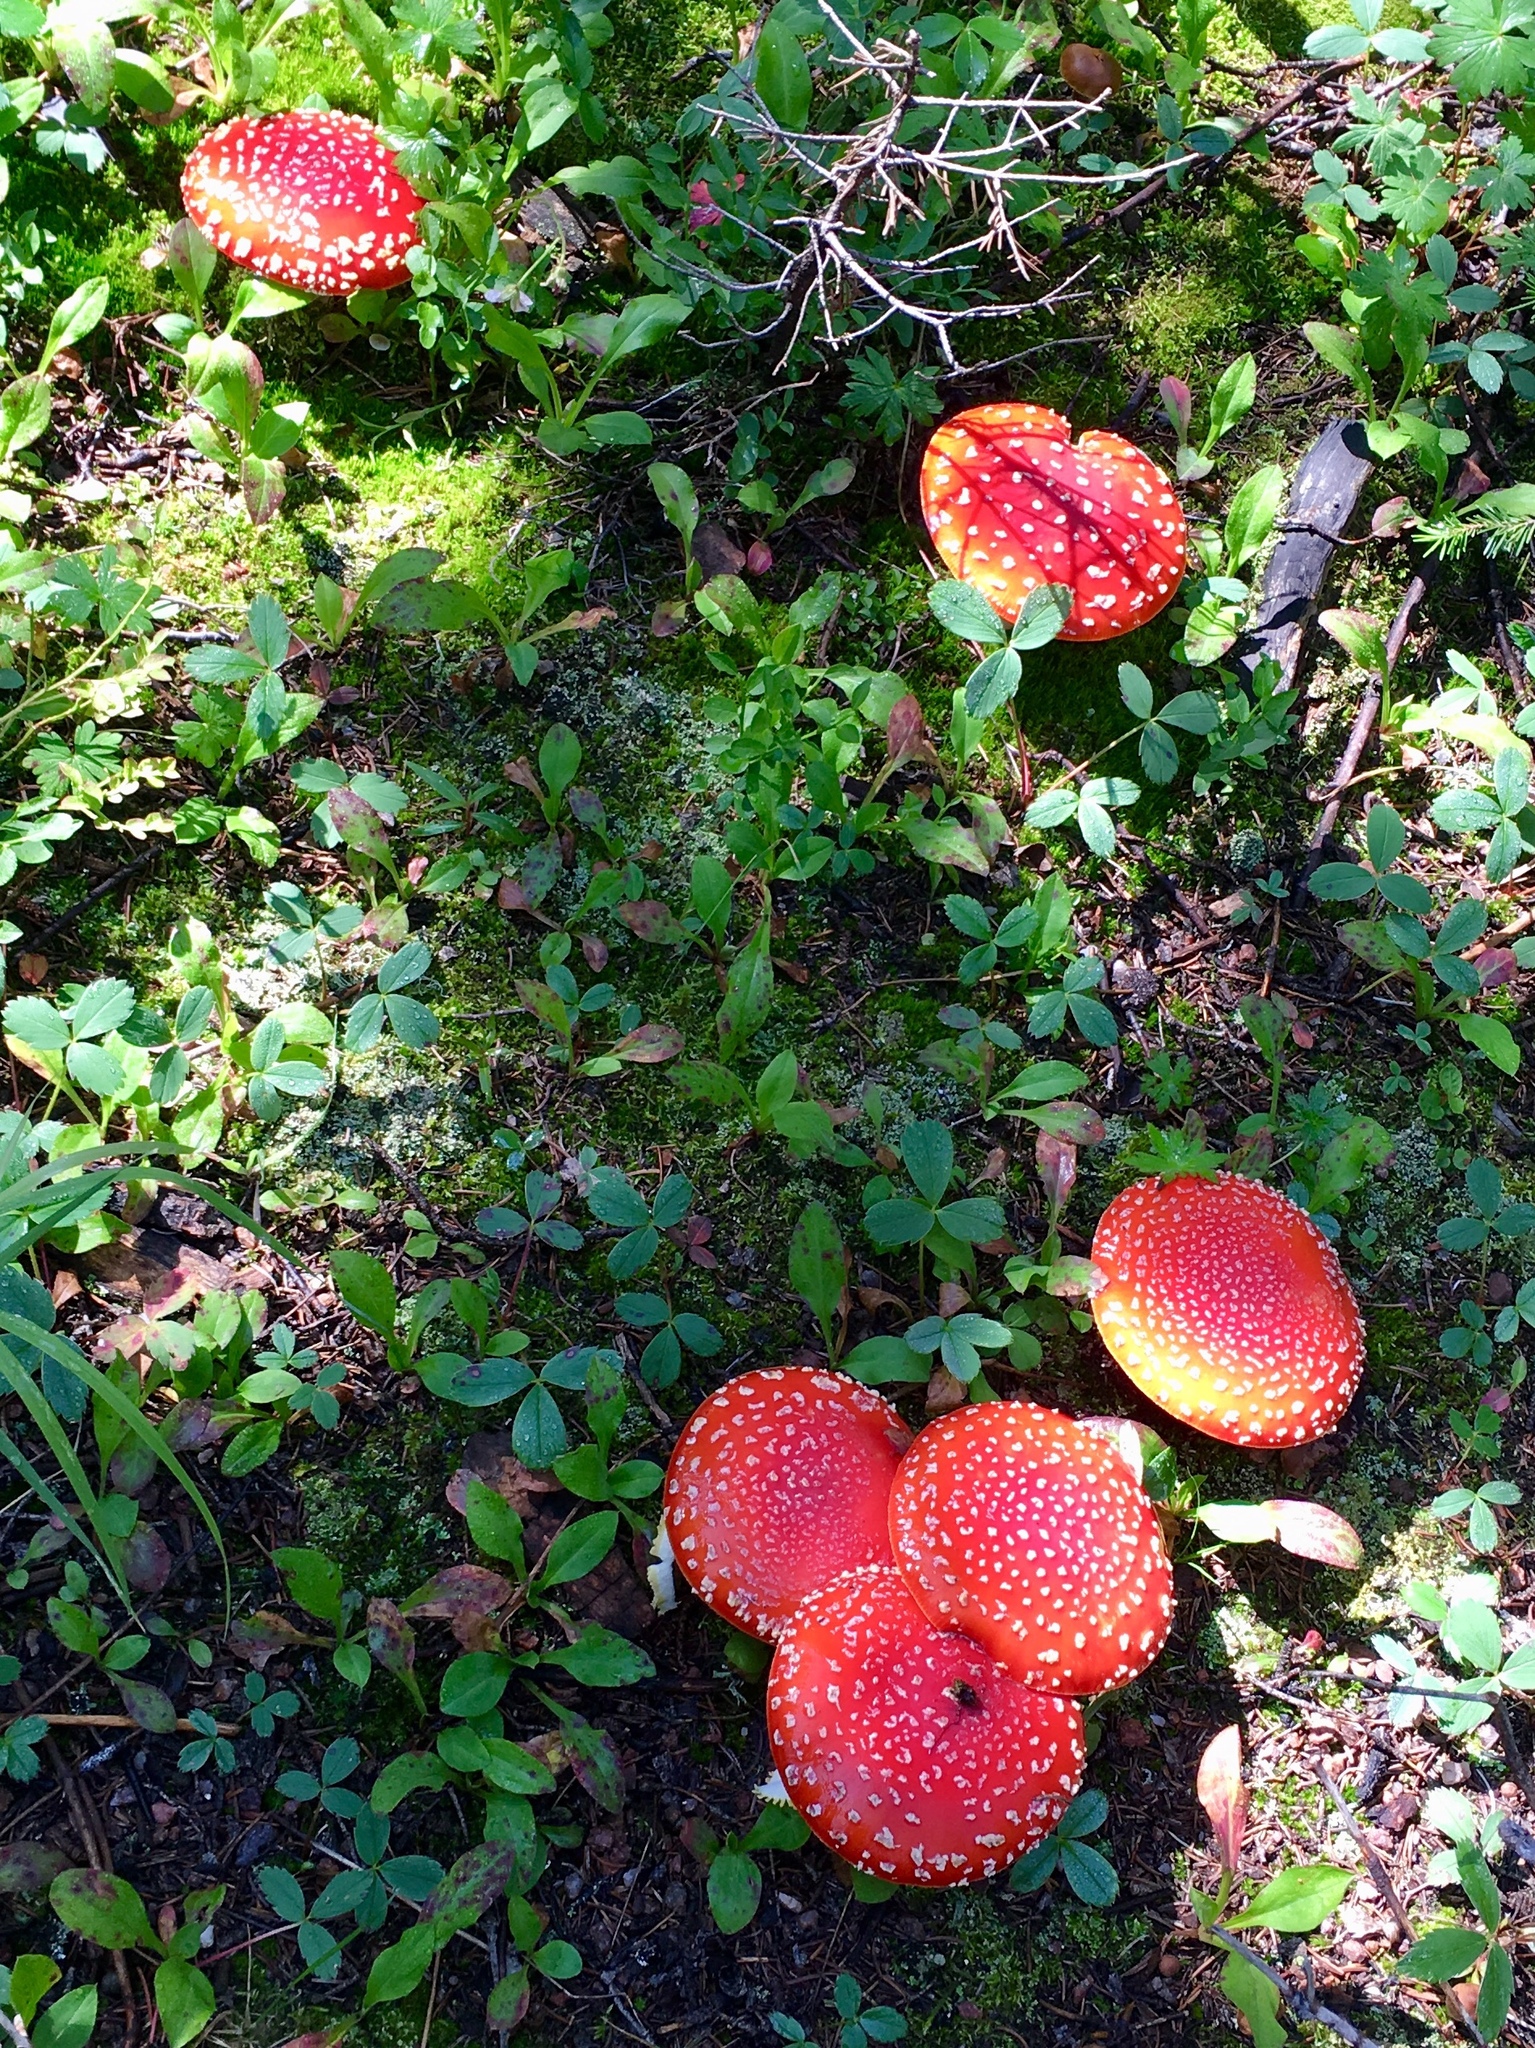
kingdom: Fungi
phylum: Basidiomycota
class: Agaricomycetes
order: Agaricales
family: Amanitaceae
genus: Amanita
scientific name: Amanita muscaria
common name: Fly agaric
